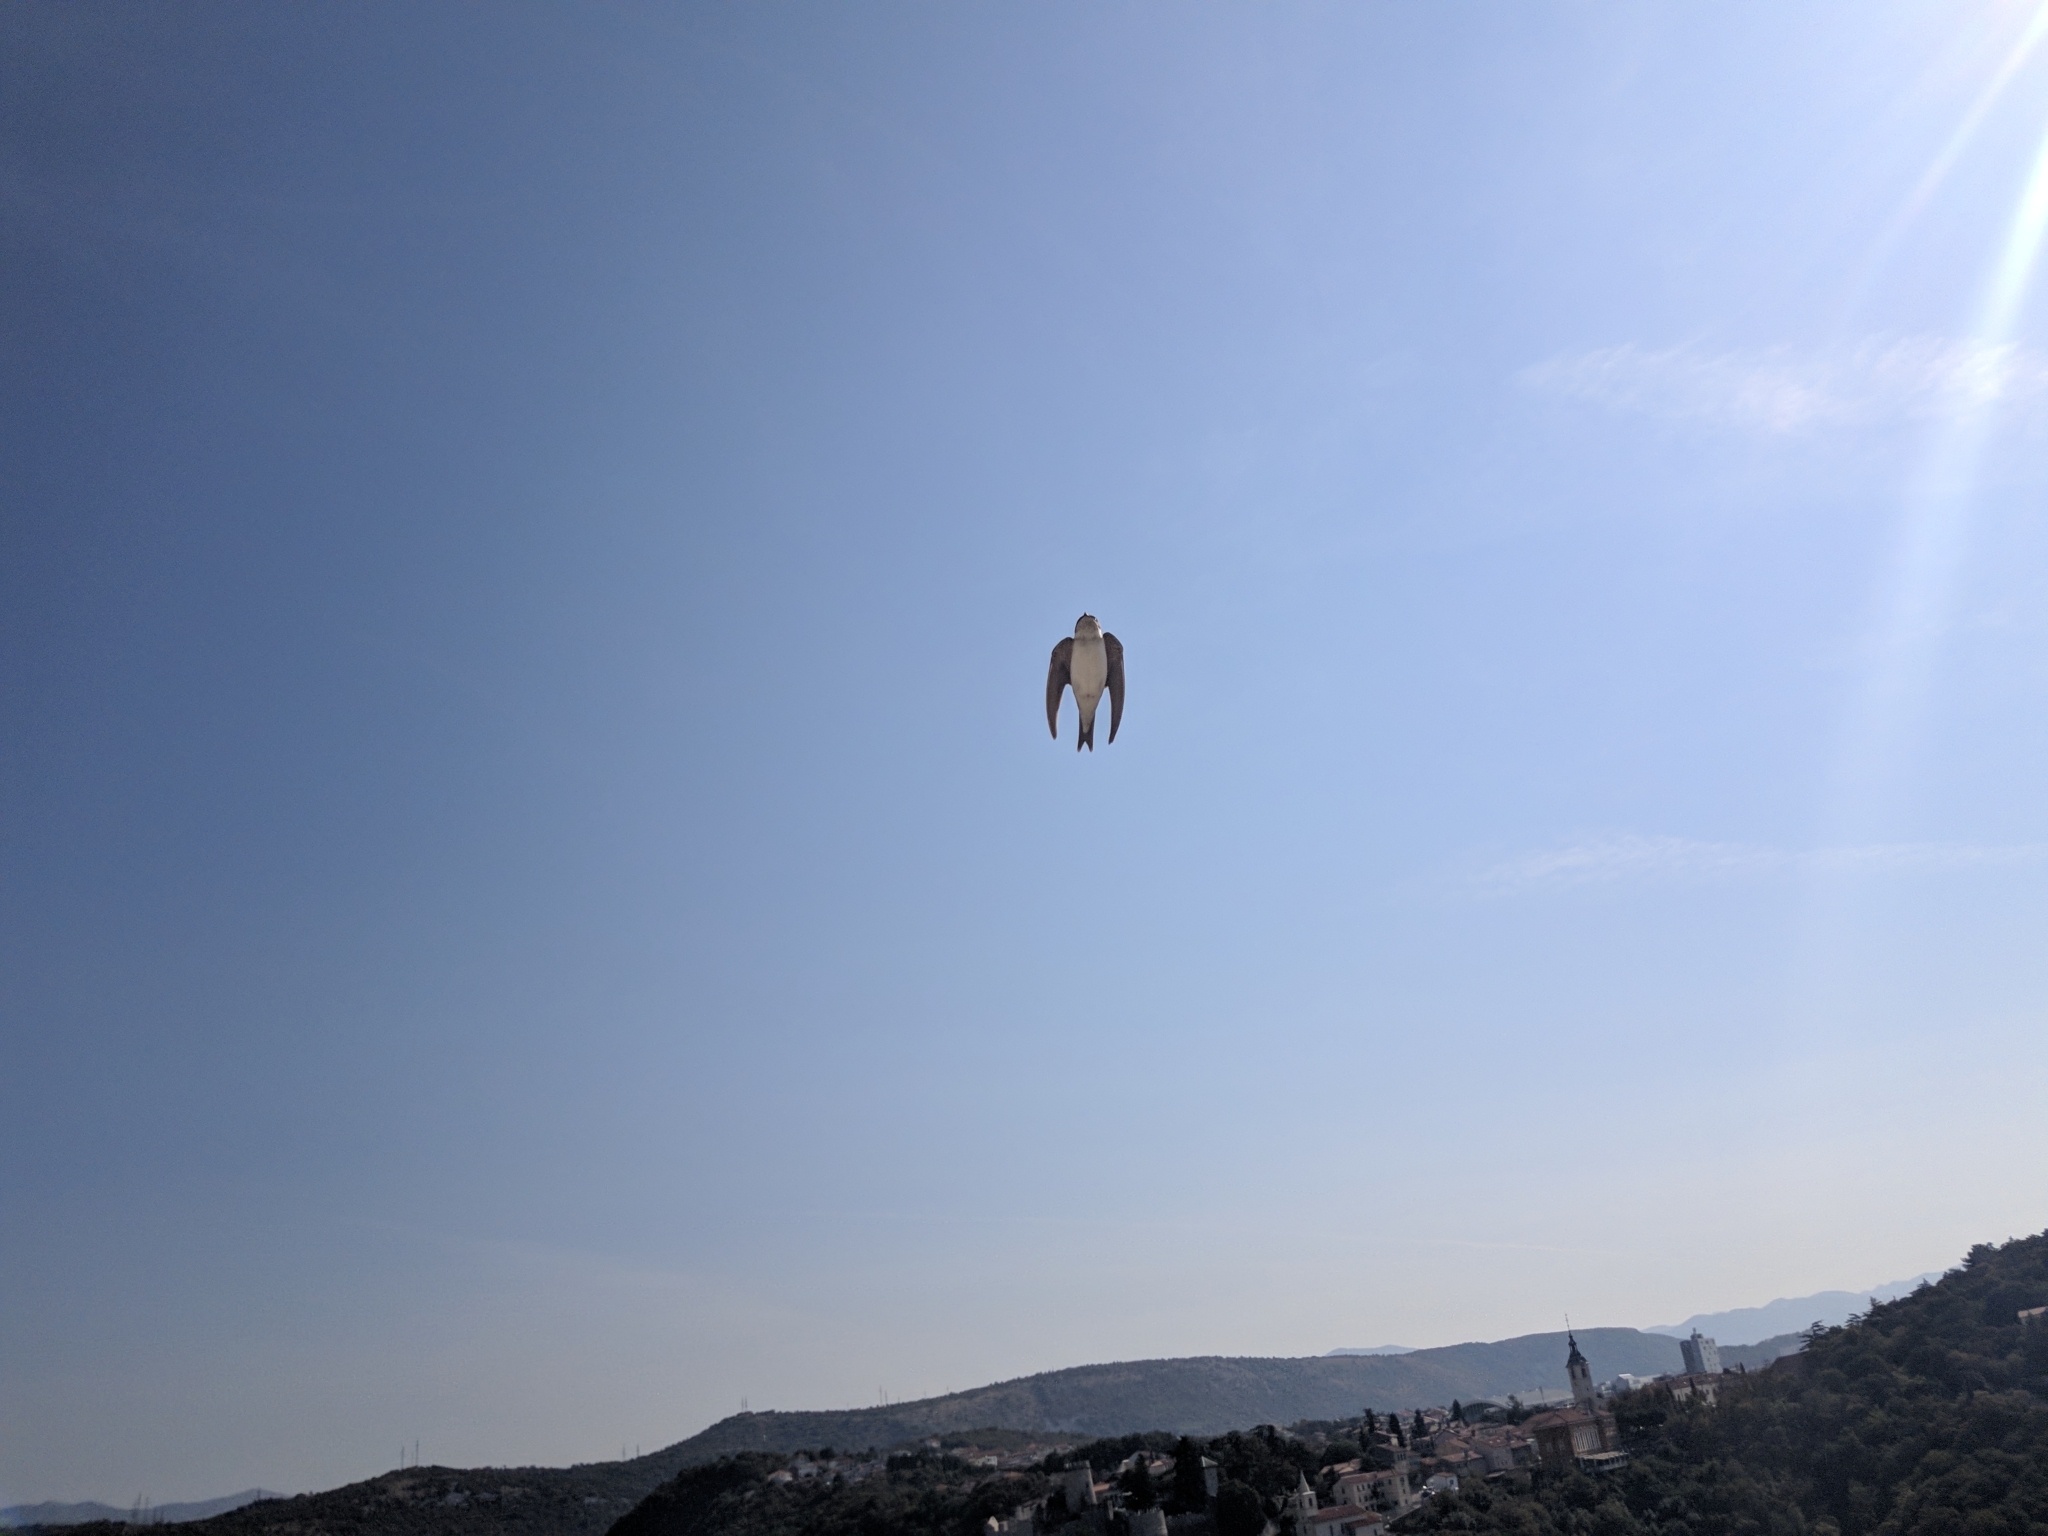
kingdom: Animalia
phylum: Chordata
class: Aves
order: Passeriformes
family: Hirundinidae
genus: Delichon
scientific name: Delichon urbicum
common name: Common house martin
